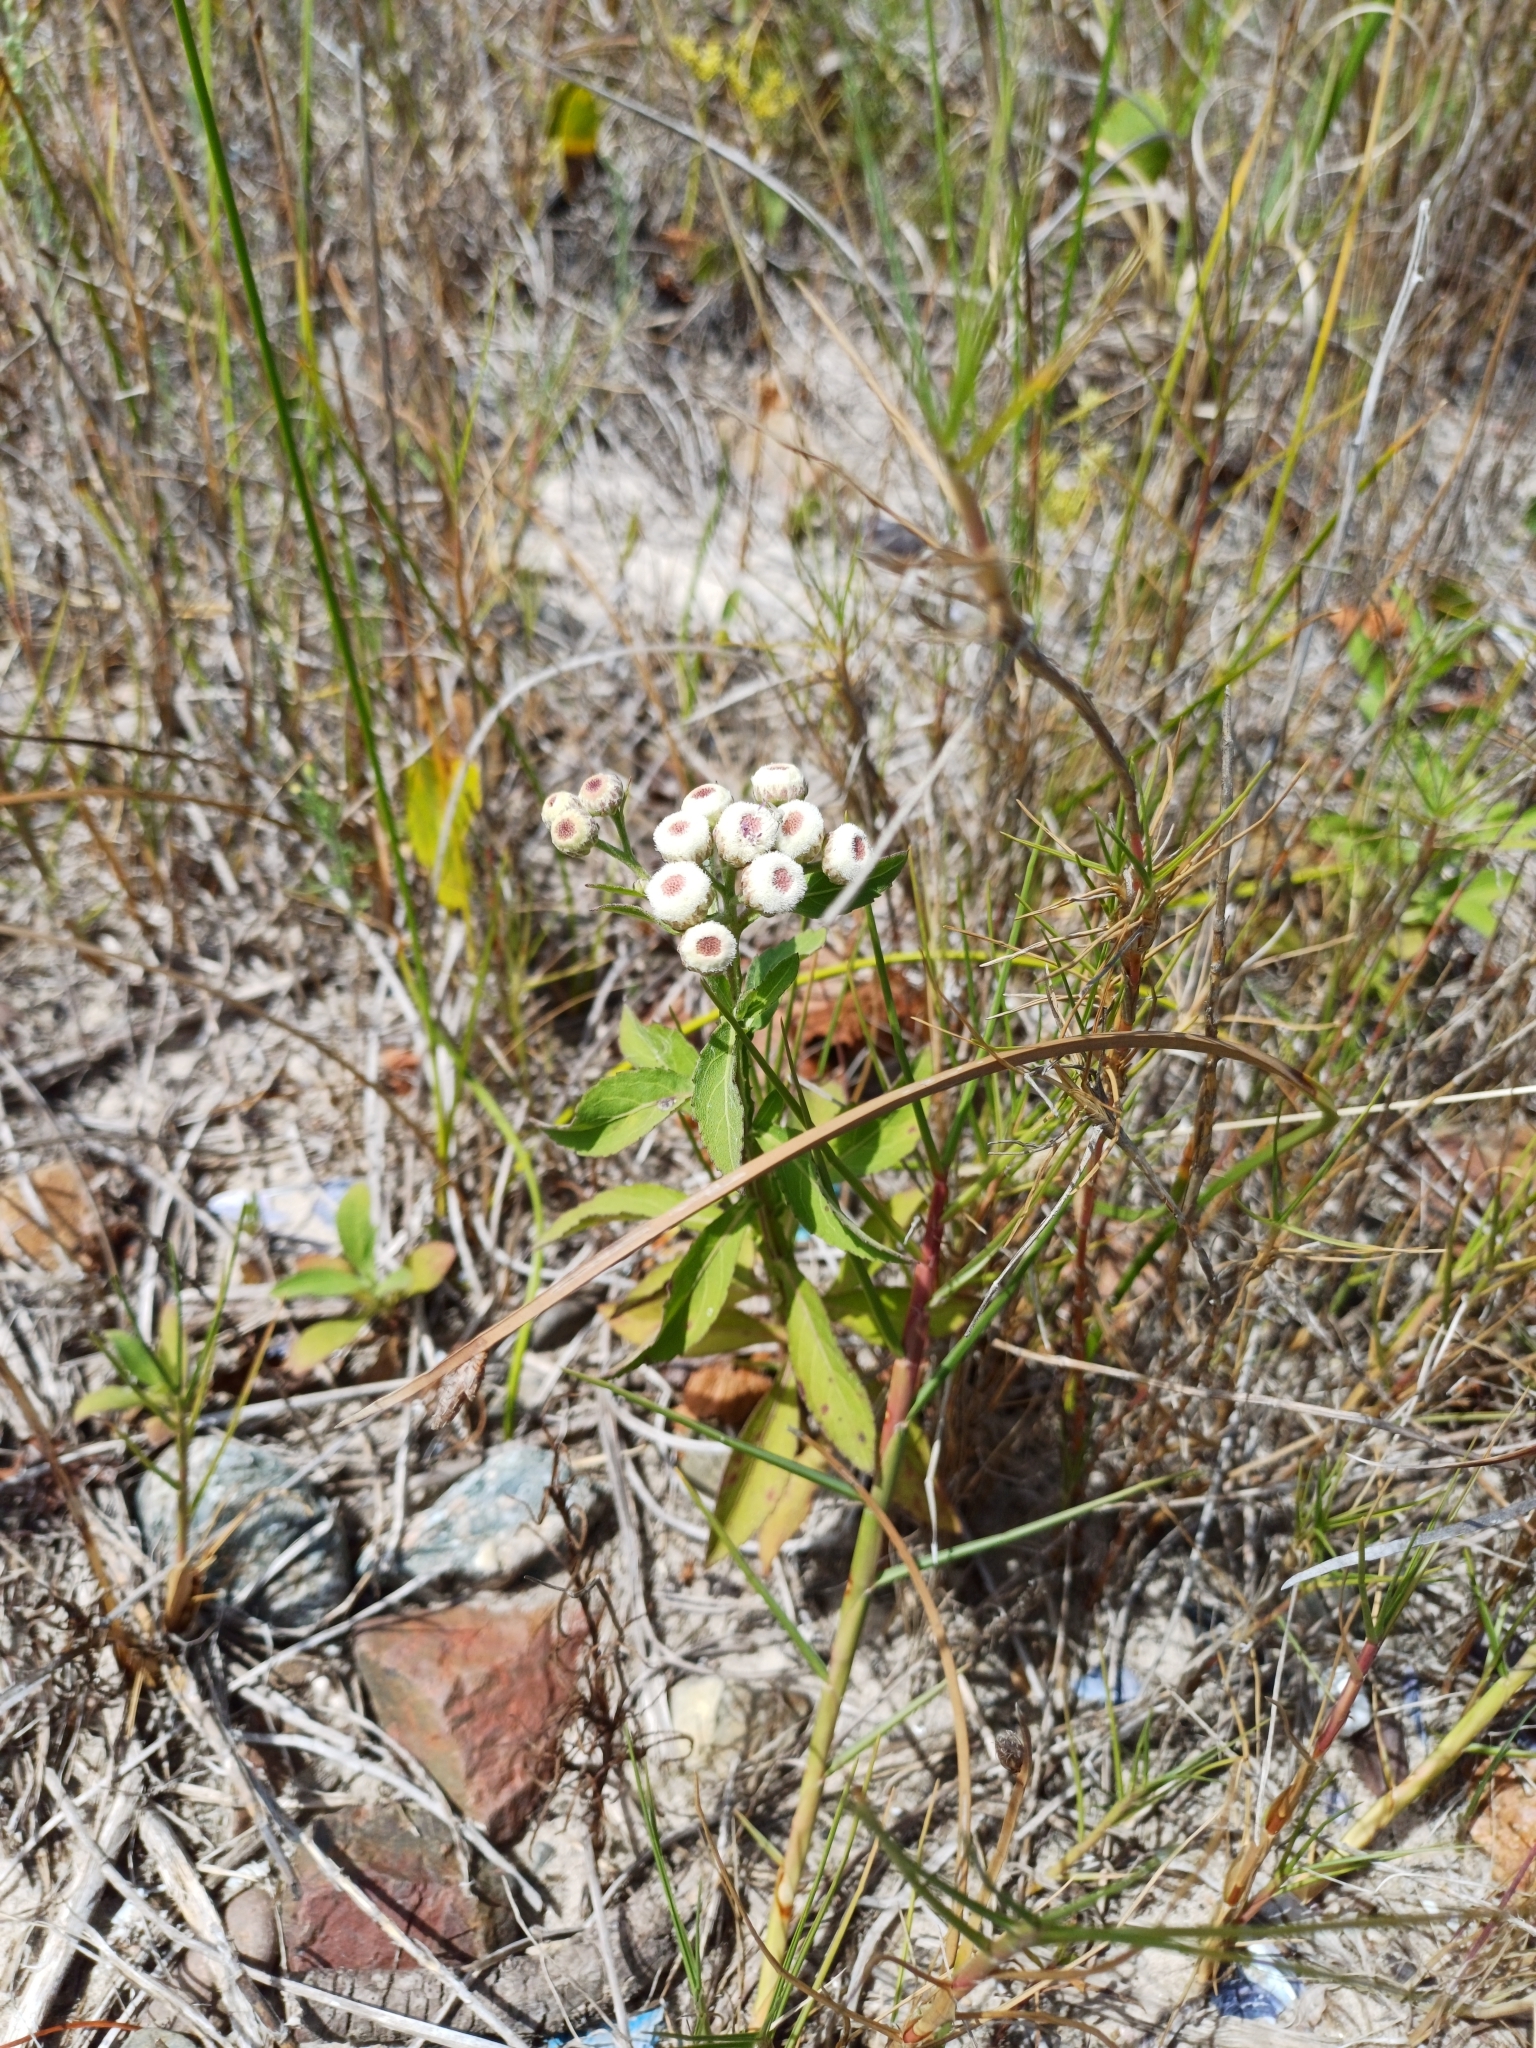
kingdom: Plantae
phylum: Tracheophyta
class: Magnoliopsida
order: Asterales
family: Asteraceae
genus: Pluchea
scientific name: Pluchea sagittalis
